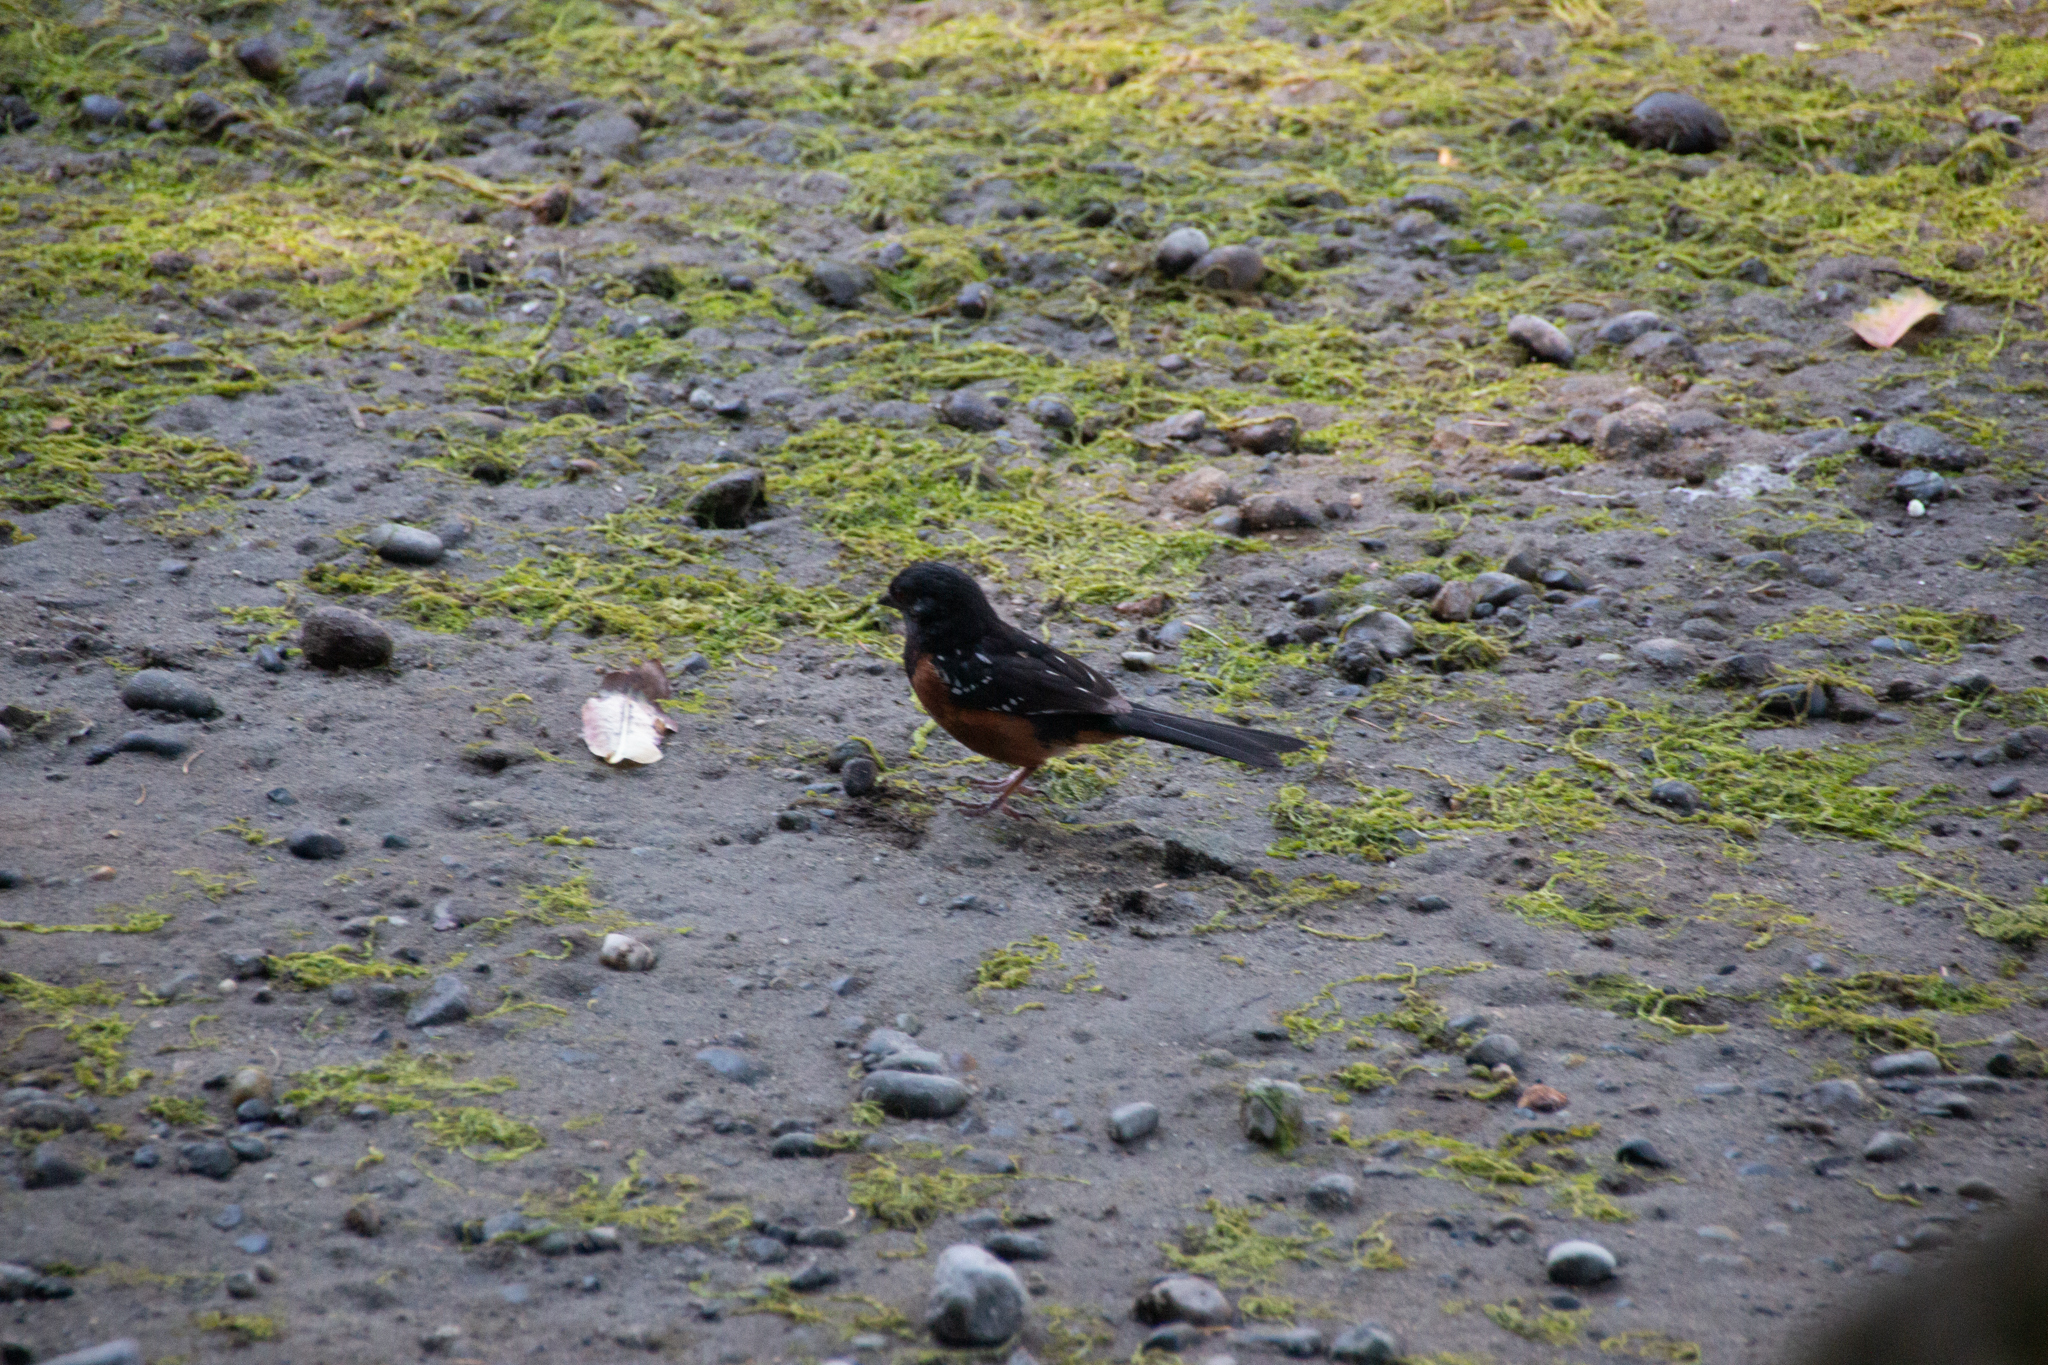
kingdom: Animalia
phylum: Chordata
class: Aves
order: Passeriformes
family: Passerellidae
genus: Pipilo
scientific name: Pipilo maculatus
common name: Spotted towhee
